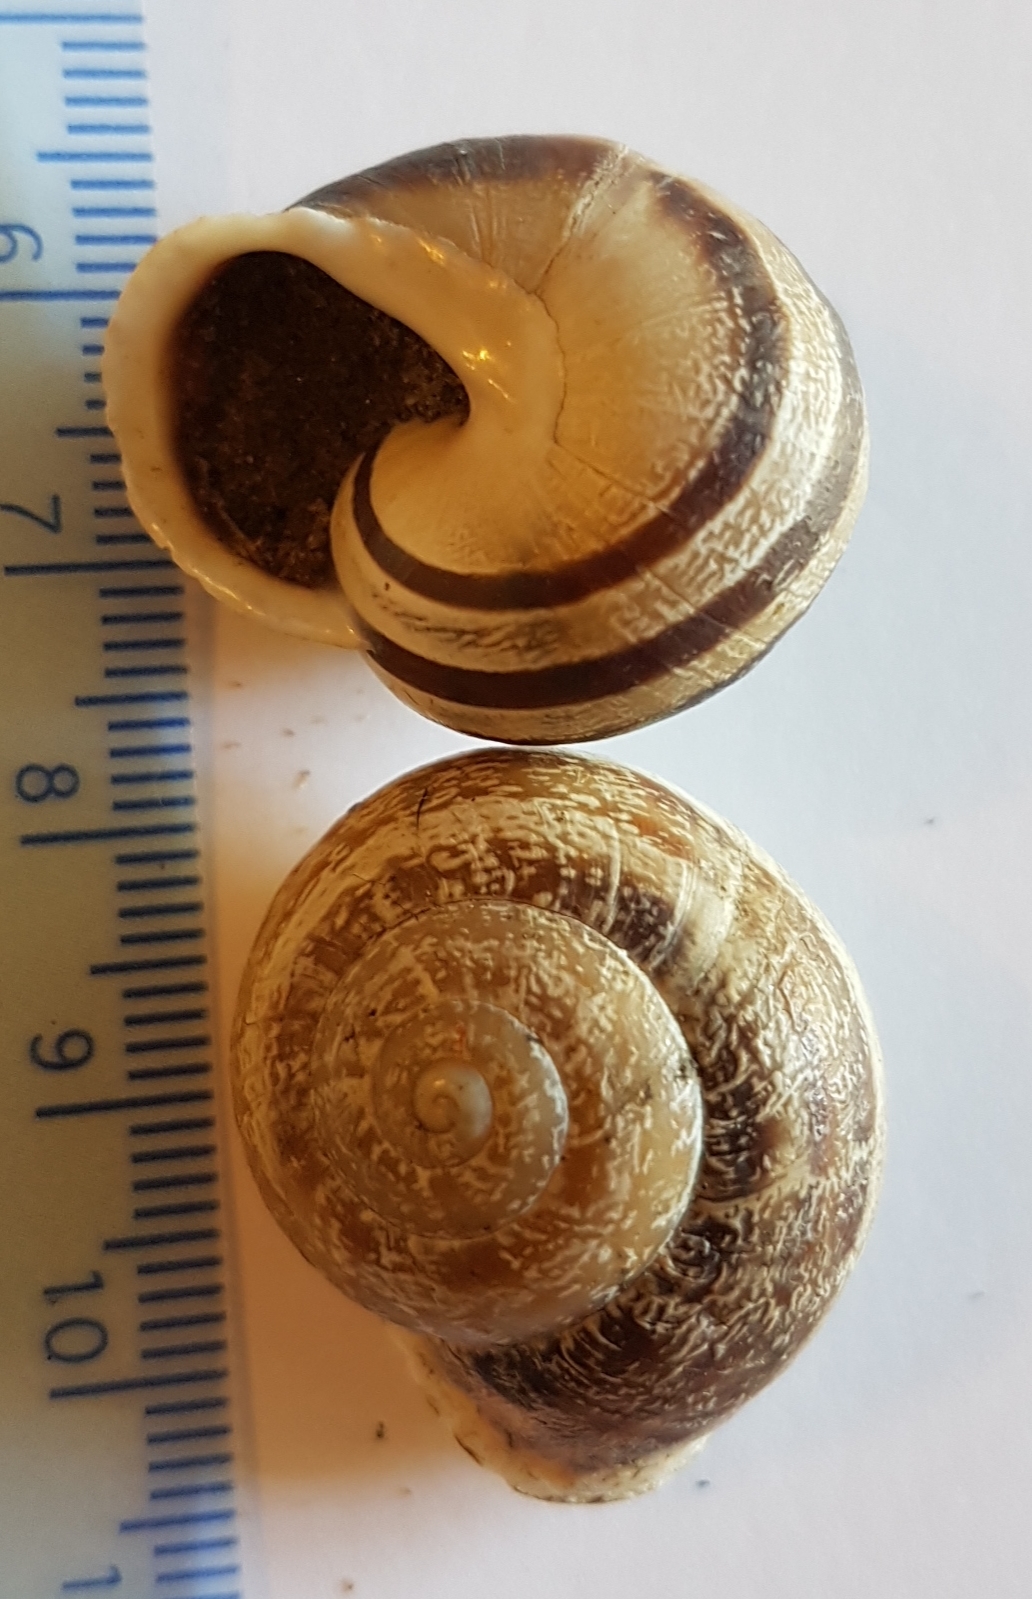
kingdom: Animalia
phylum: Mollusca
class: Gastropoda
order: Stylommatophora
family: Helicidae
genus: Eobania
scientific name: Eobania vermiculata
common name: Chocolateband snail
